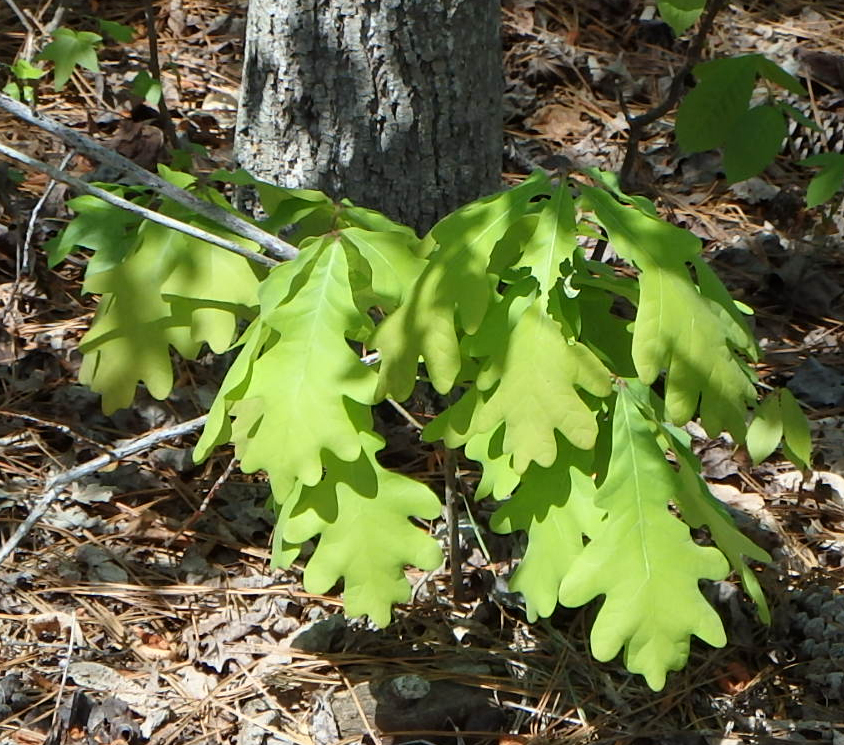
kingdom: Plantae
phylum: Tracheophyta
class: Magnoliopsida
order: Fagales
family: Fagaceae
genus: Quercus
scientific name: Quercus alba
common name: White oak
